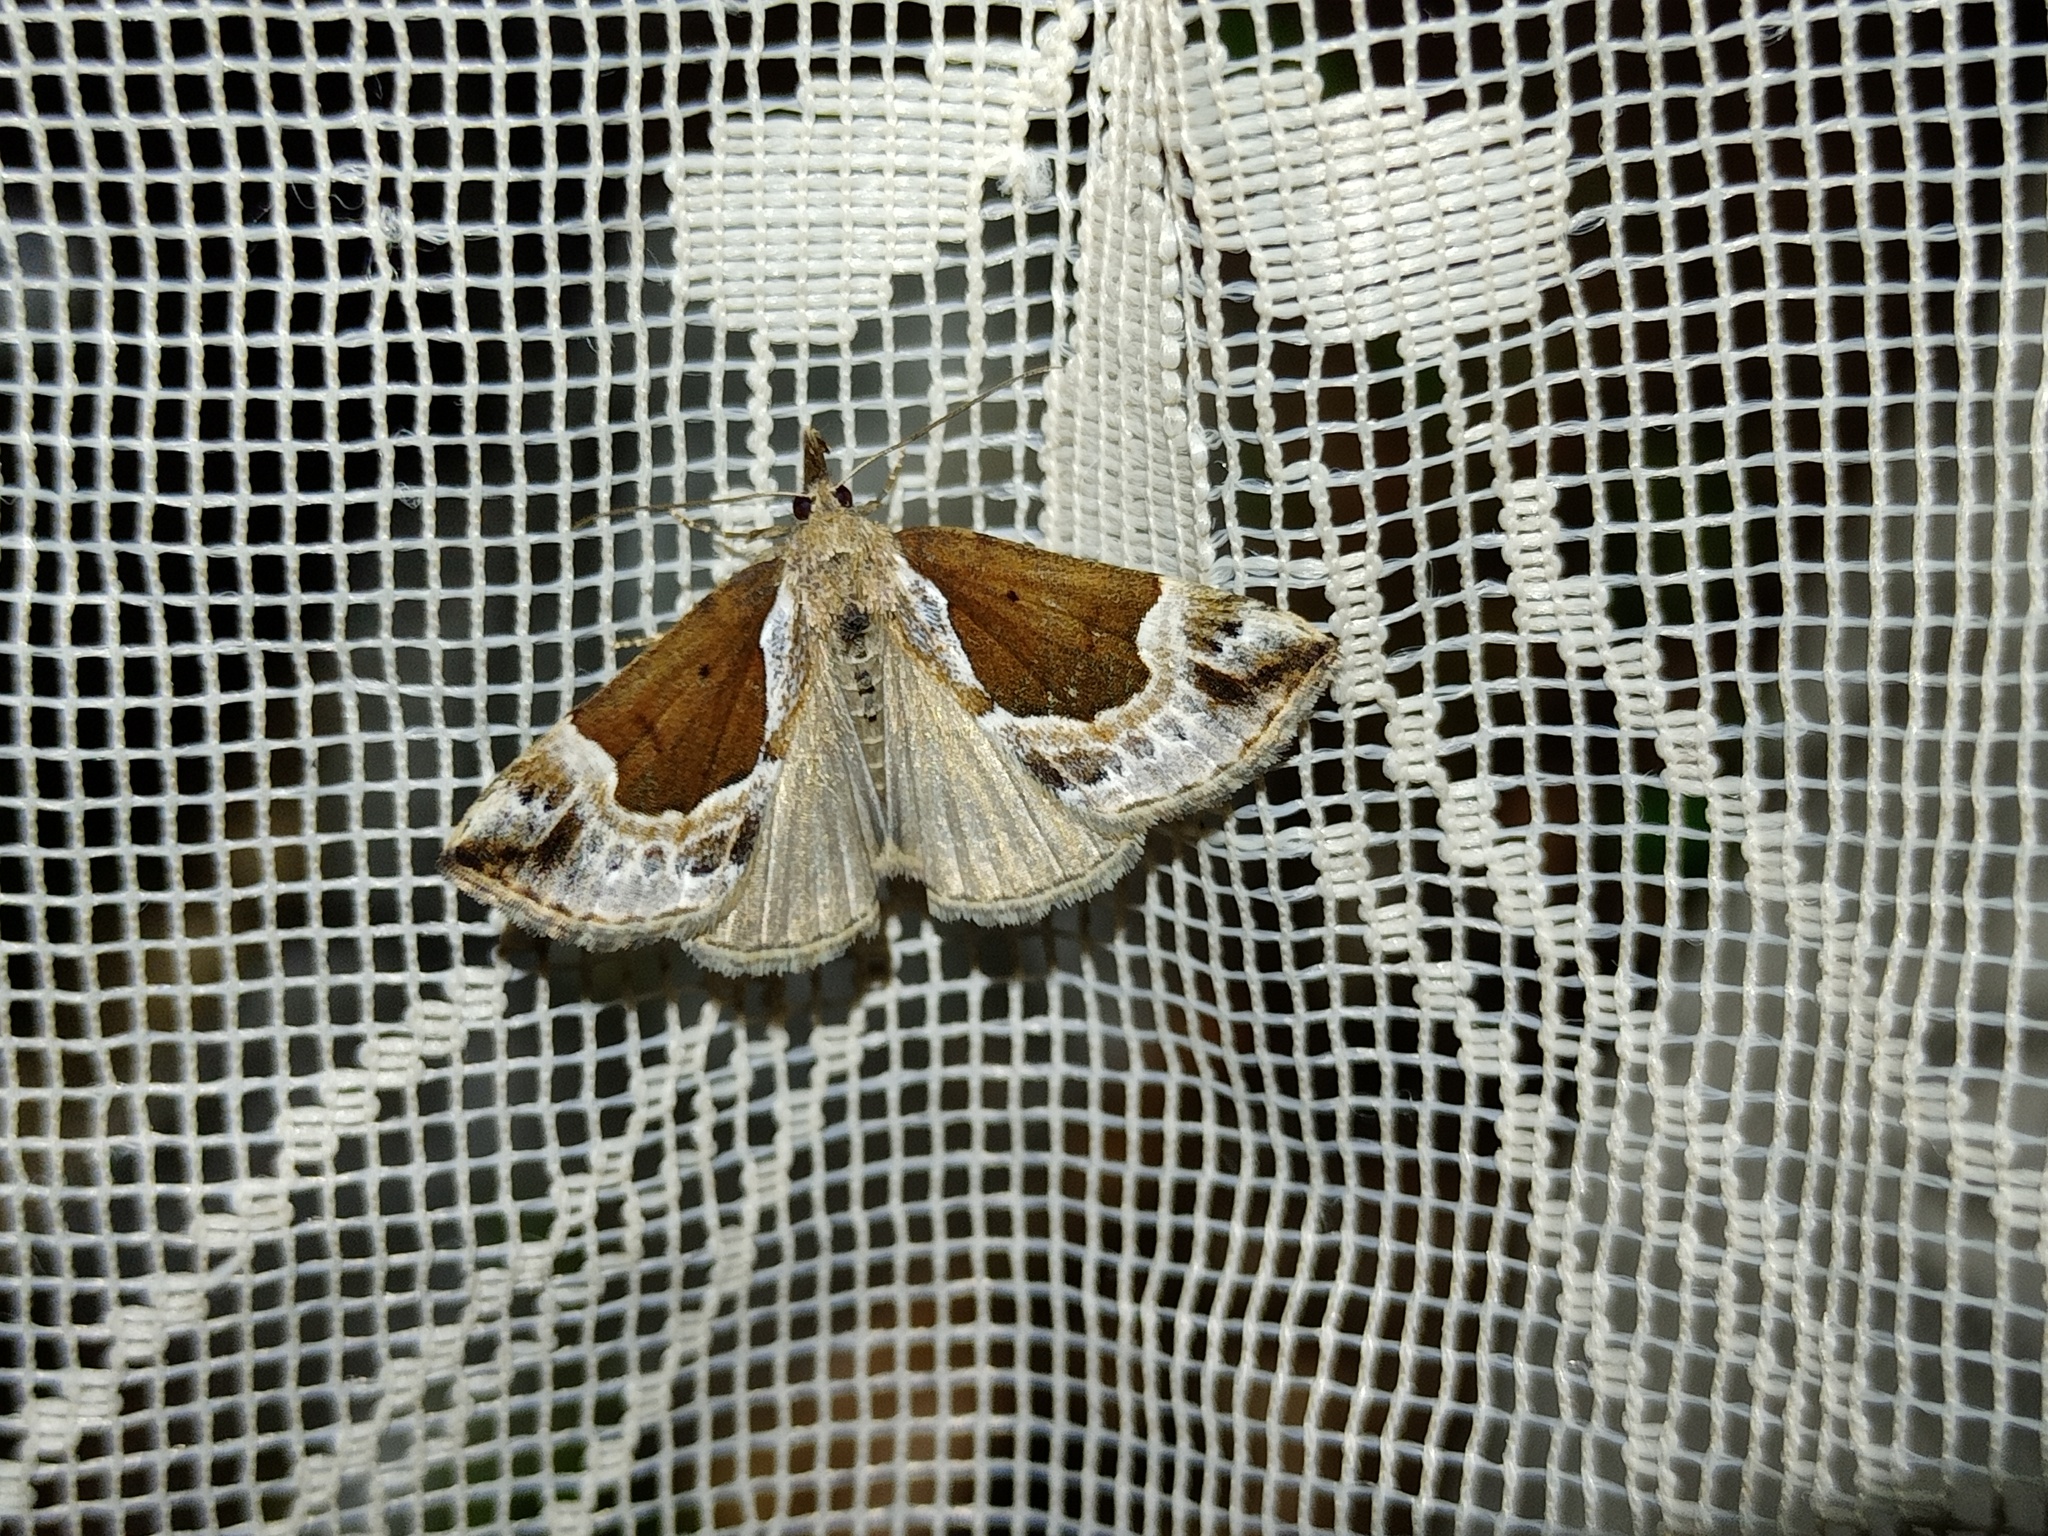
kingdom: Animalia
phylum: Arthropoda
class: Insecta
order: Lepidoptera
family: Erebidae
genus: Hypena
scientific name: Hypena crassalis
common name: Beautiful snout
